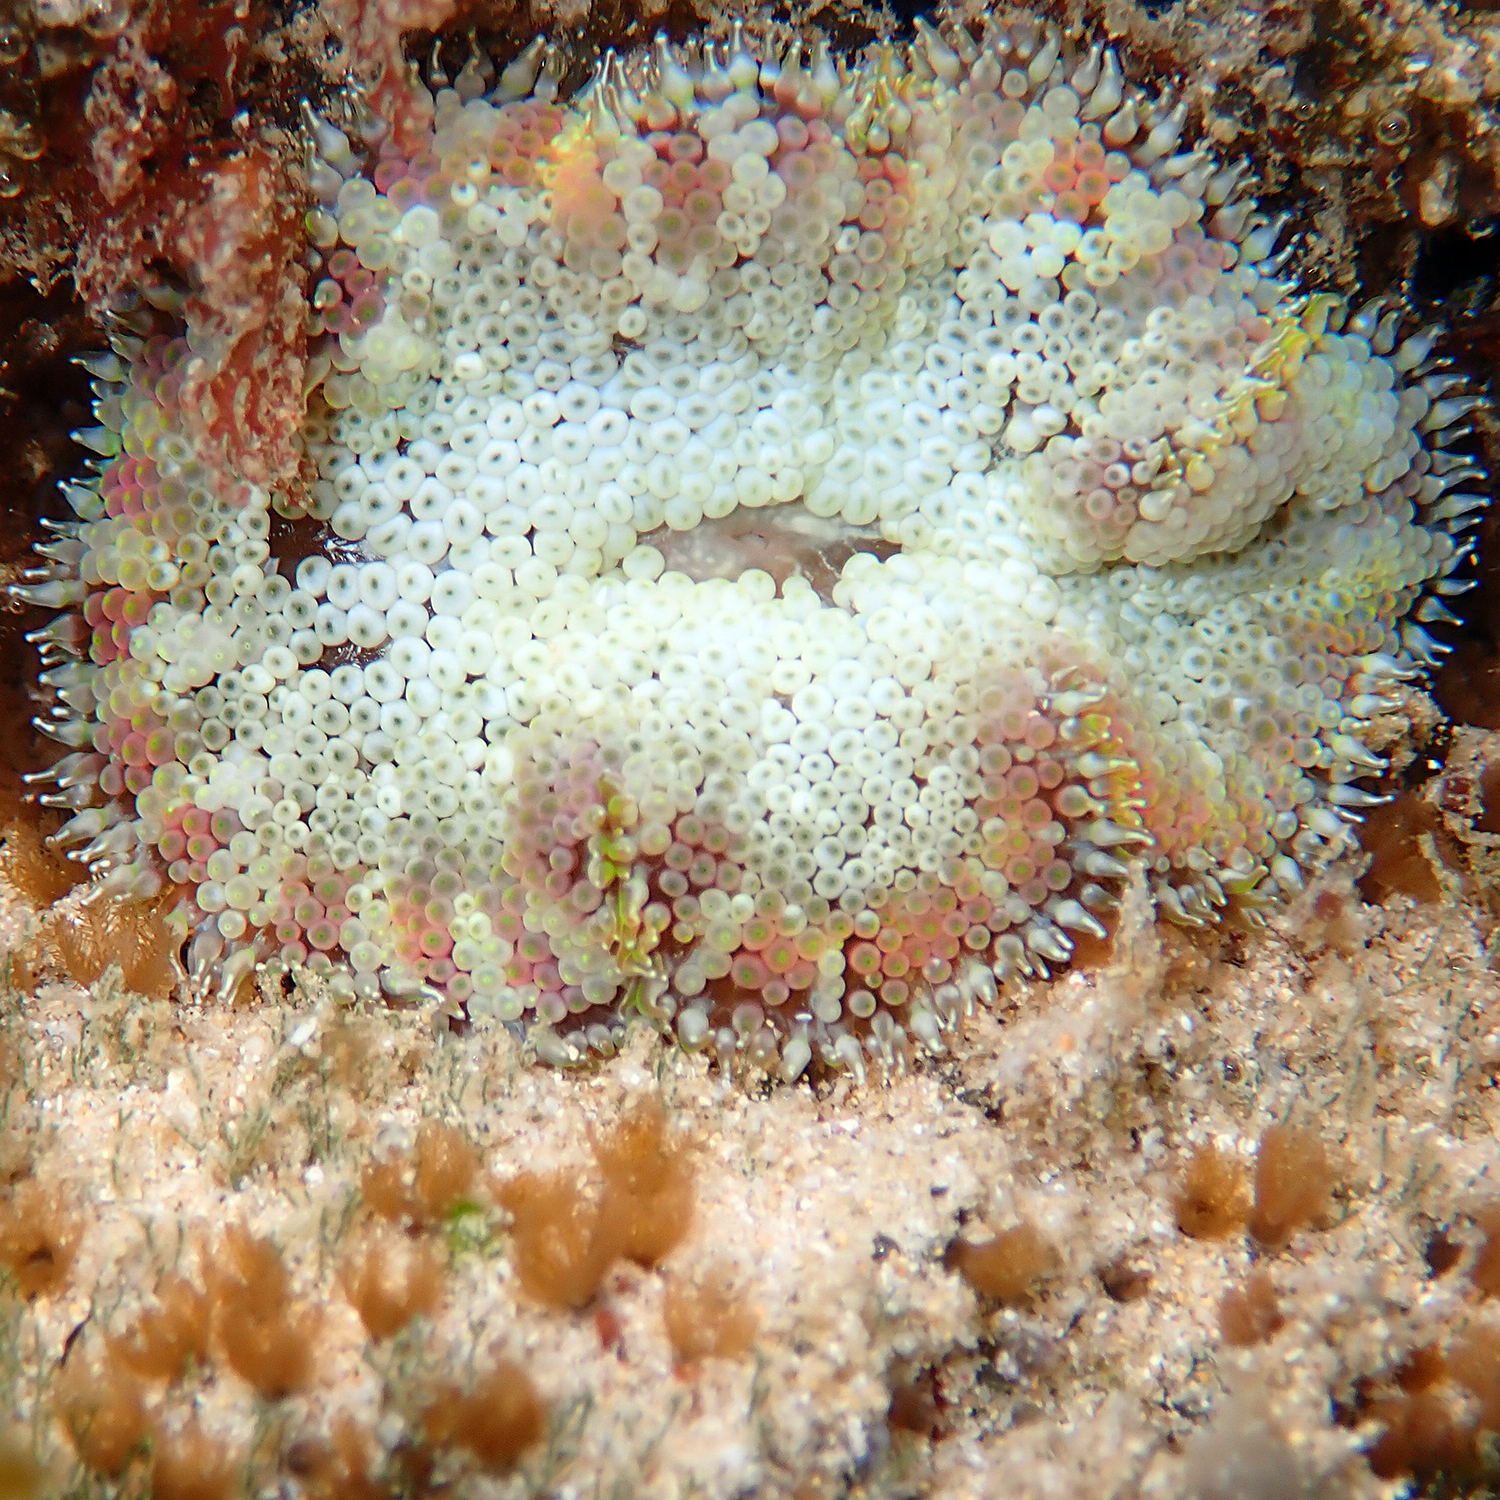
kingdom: Animalia
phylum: Cnidaria
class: Anthozoa
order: Actiniaria
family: Stichodactylidae
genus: Stichodactyla
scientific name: Stichodactyla tapetum
